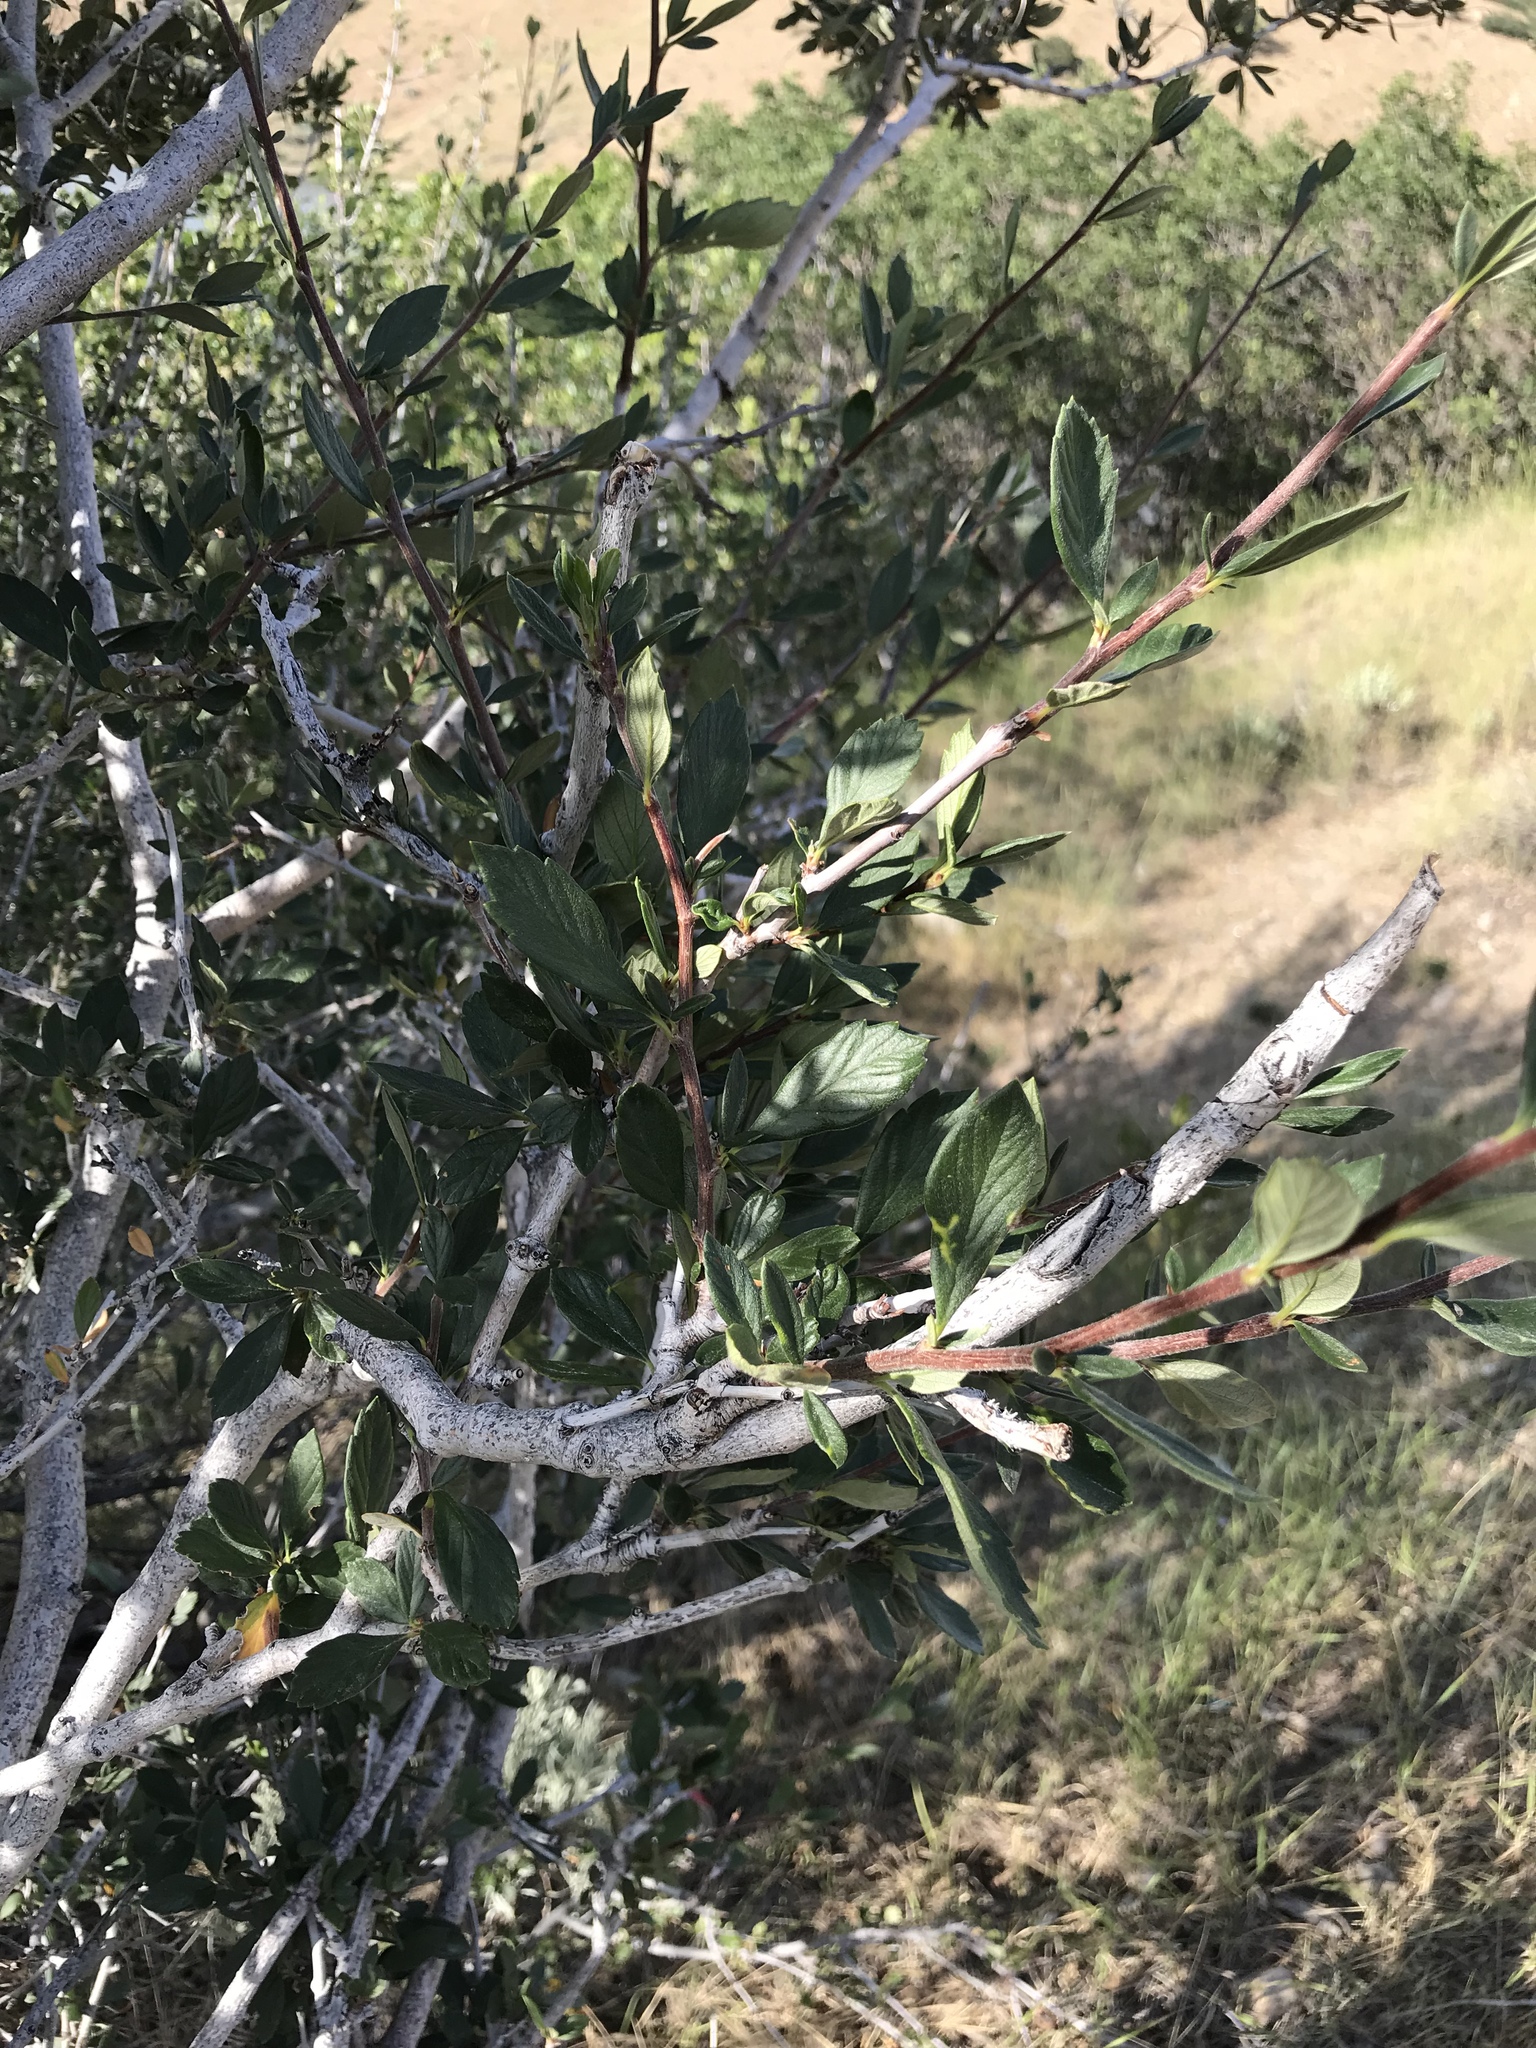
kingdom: Plantae
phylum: Tracheophyta
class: Magnoliopsida
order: Rosales
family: Rosaceae
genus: Cercocarpus
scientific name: Cercocarpus montanus
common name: Alder-leaf cercocarpus
